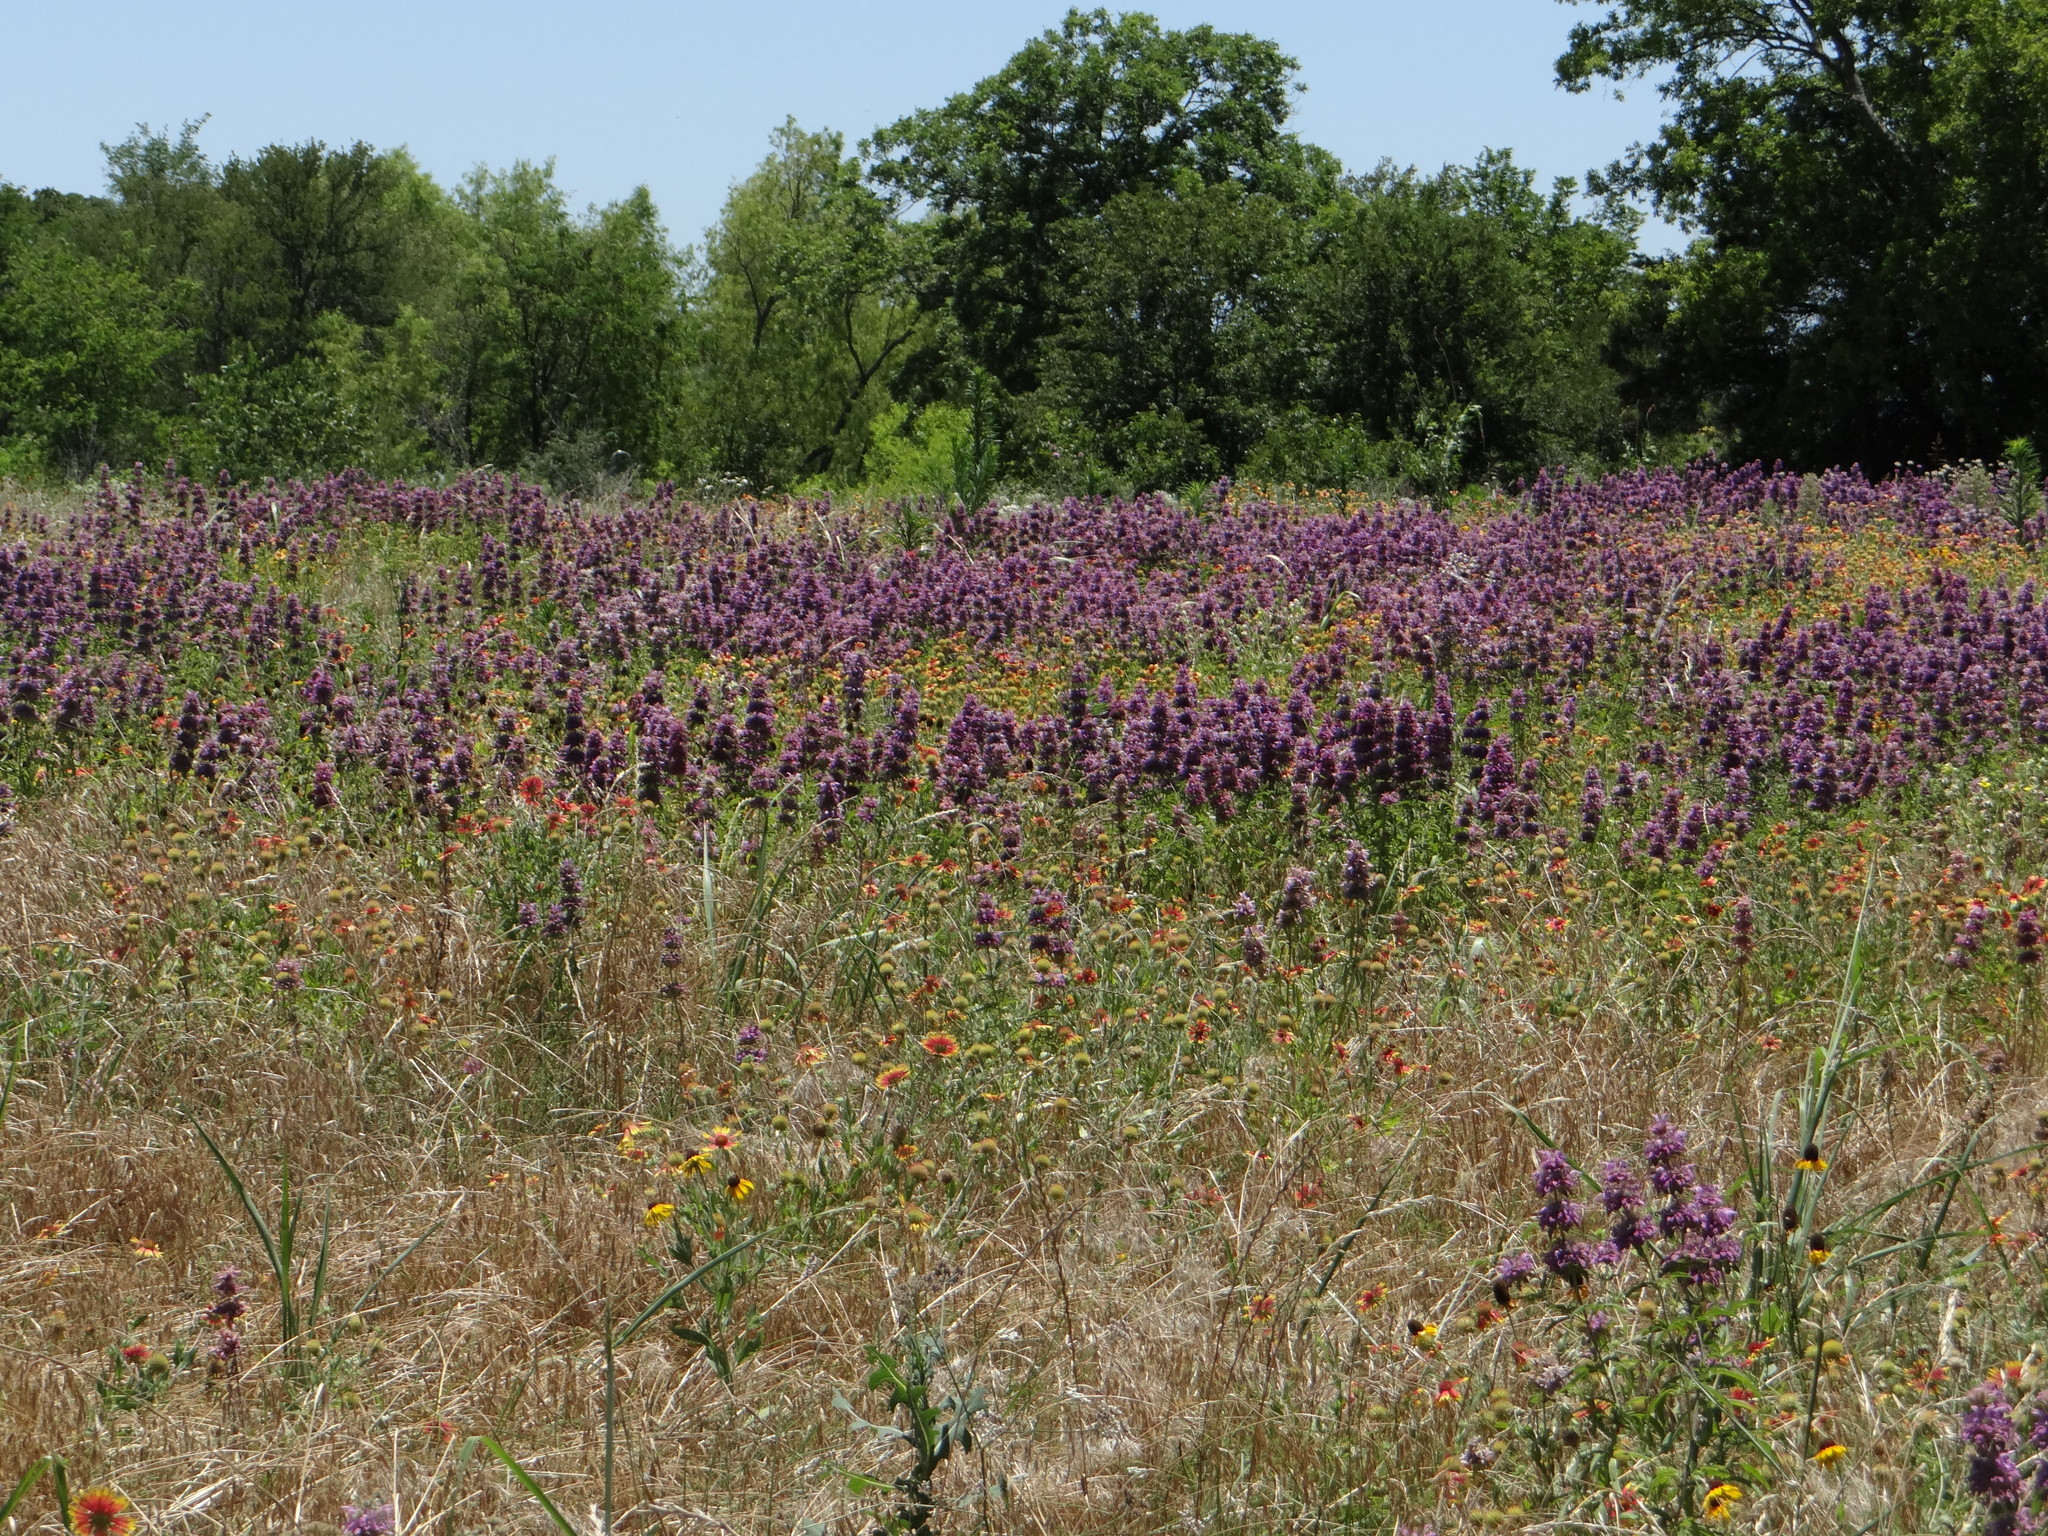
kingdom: Plantae
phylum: Tracheophyta
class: Magnoliopsida
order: Lamiales
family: Lamiaceae
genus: Monarda
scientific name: Monarda citriodora
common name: Lemon beebalm
